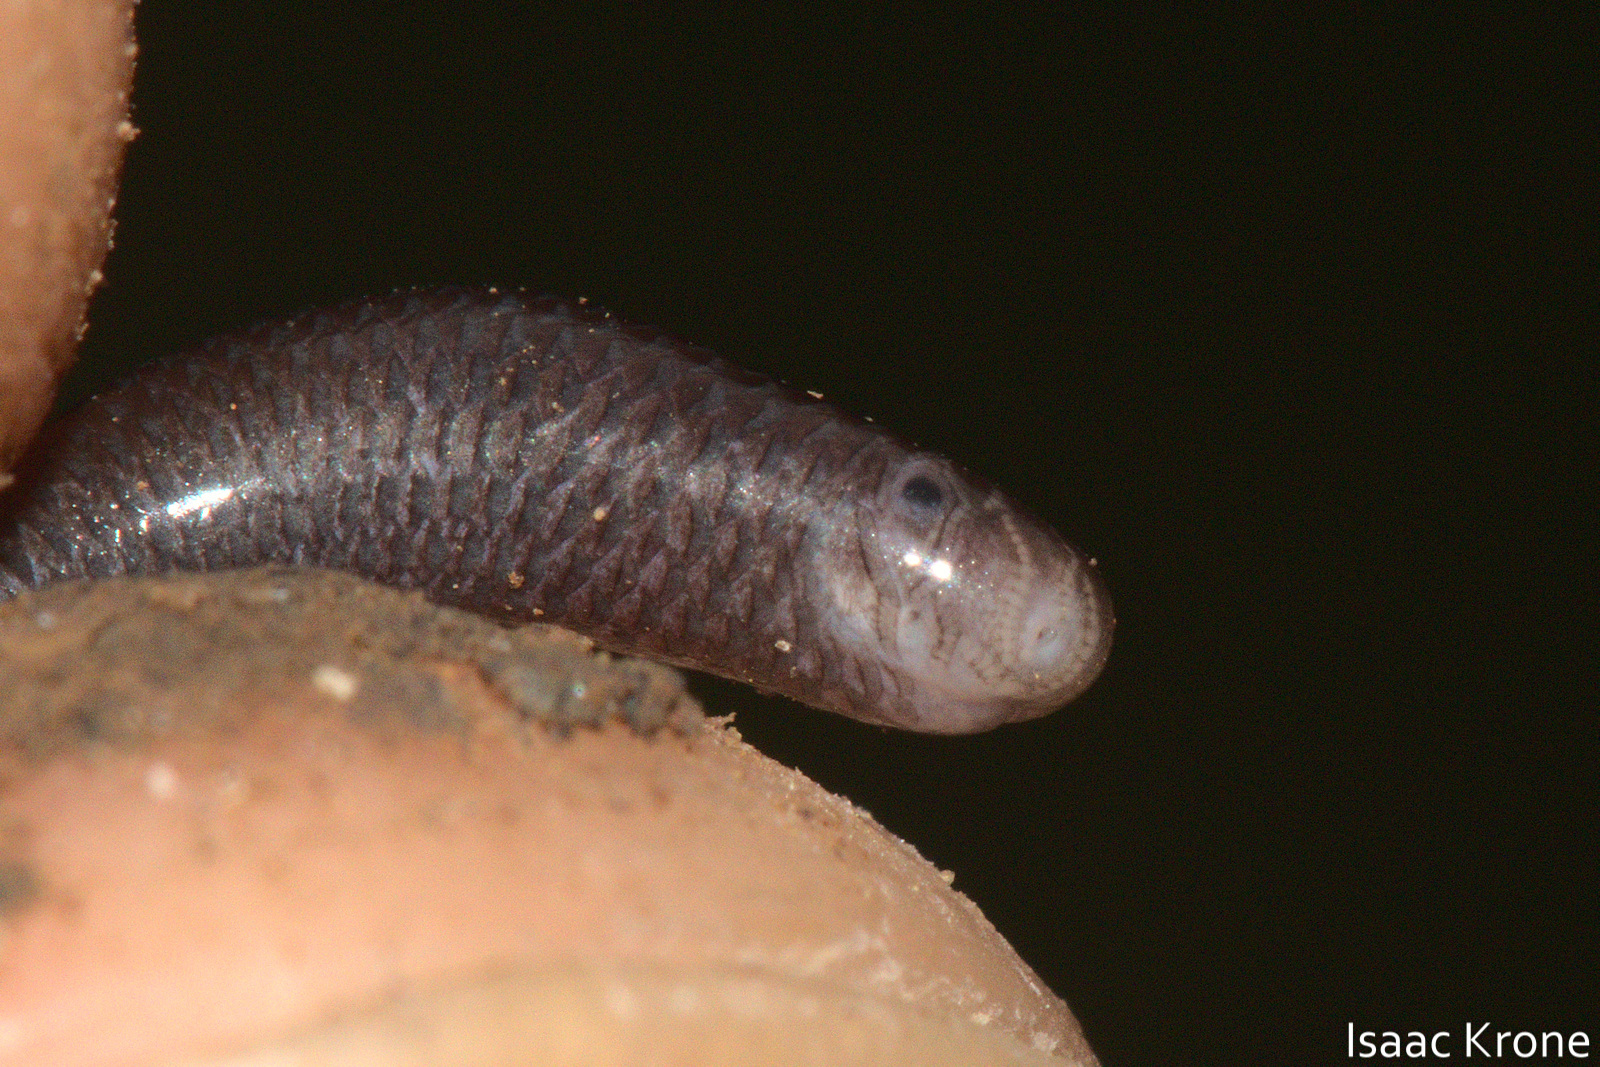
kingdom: Animalia
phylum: Chordata
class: Squamata
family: Typhlopidae
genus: Indotyphlops
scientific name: Indotyphlops braminus
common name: Brahminy blindsnake
